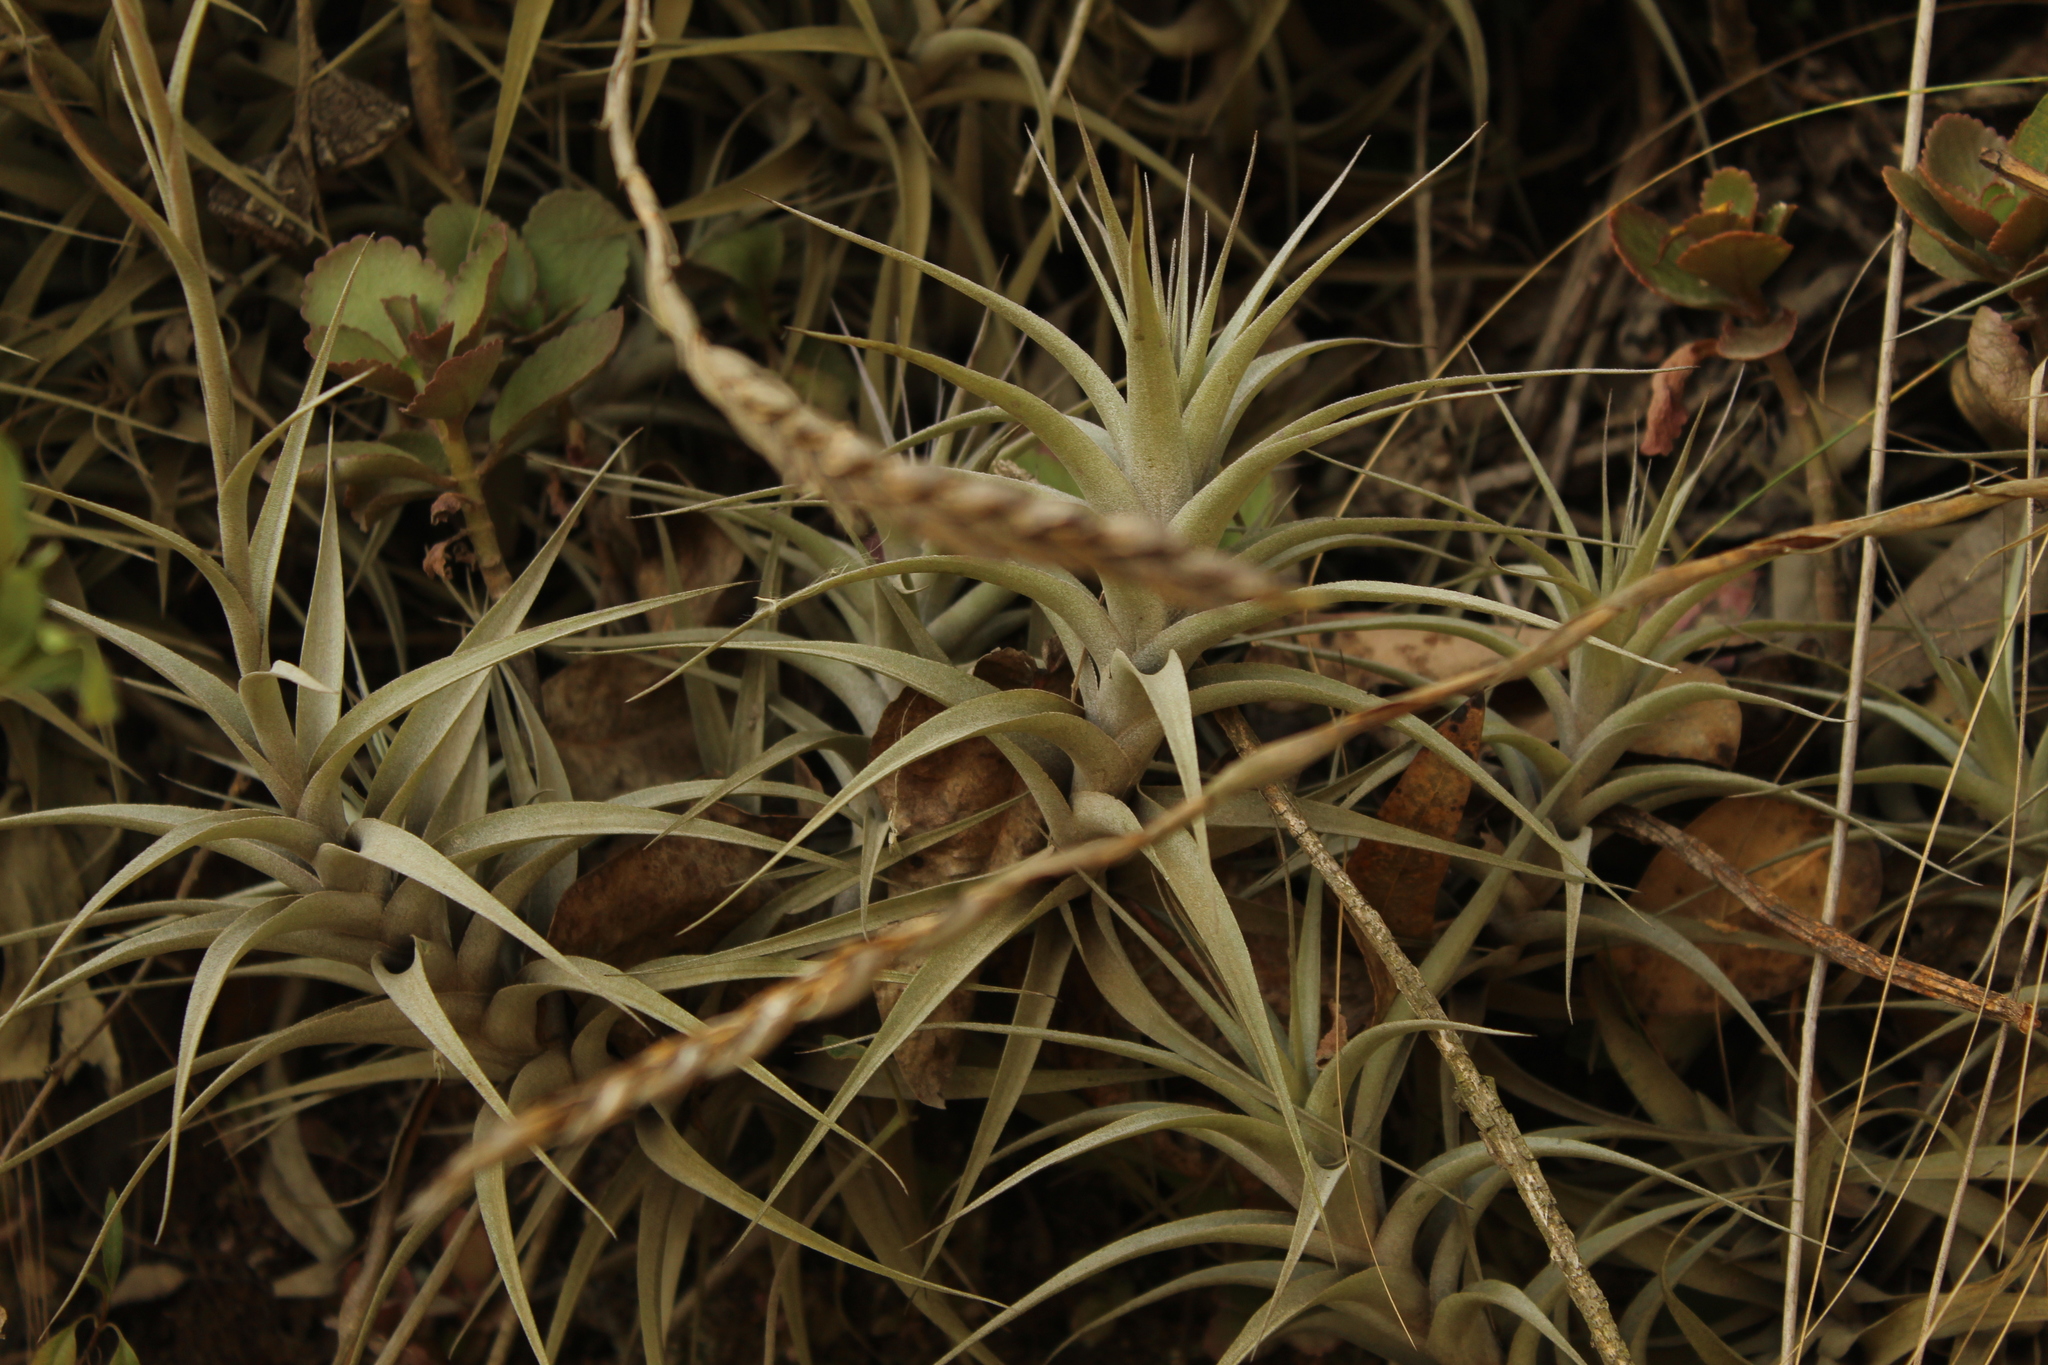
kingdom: Plantae
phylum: Tracheophyta
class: Liliopsida
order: Poales
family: Bromeliaceae
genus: Tillandsia
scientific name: Tillandsia incarnata
